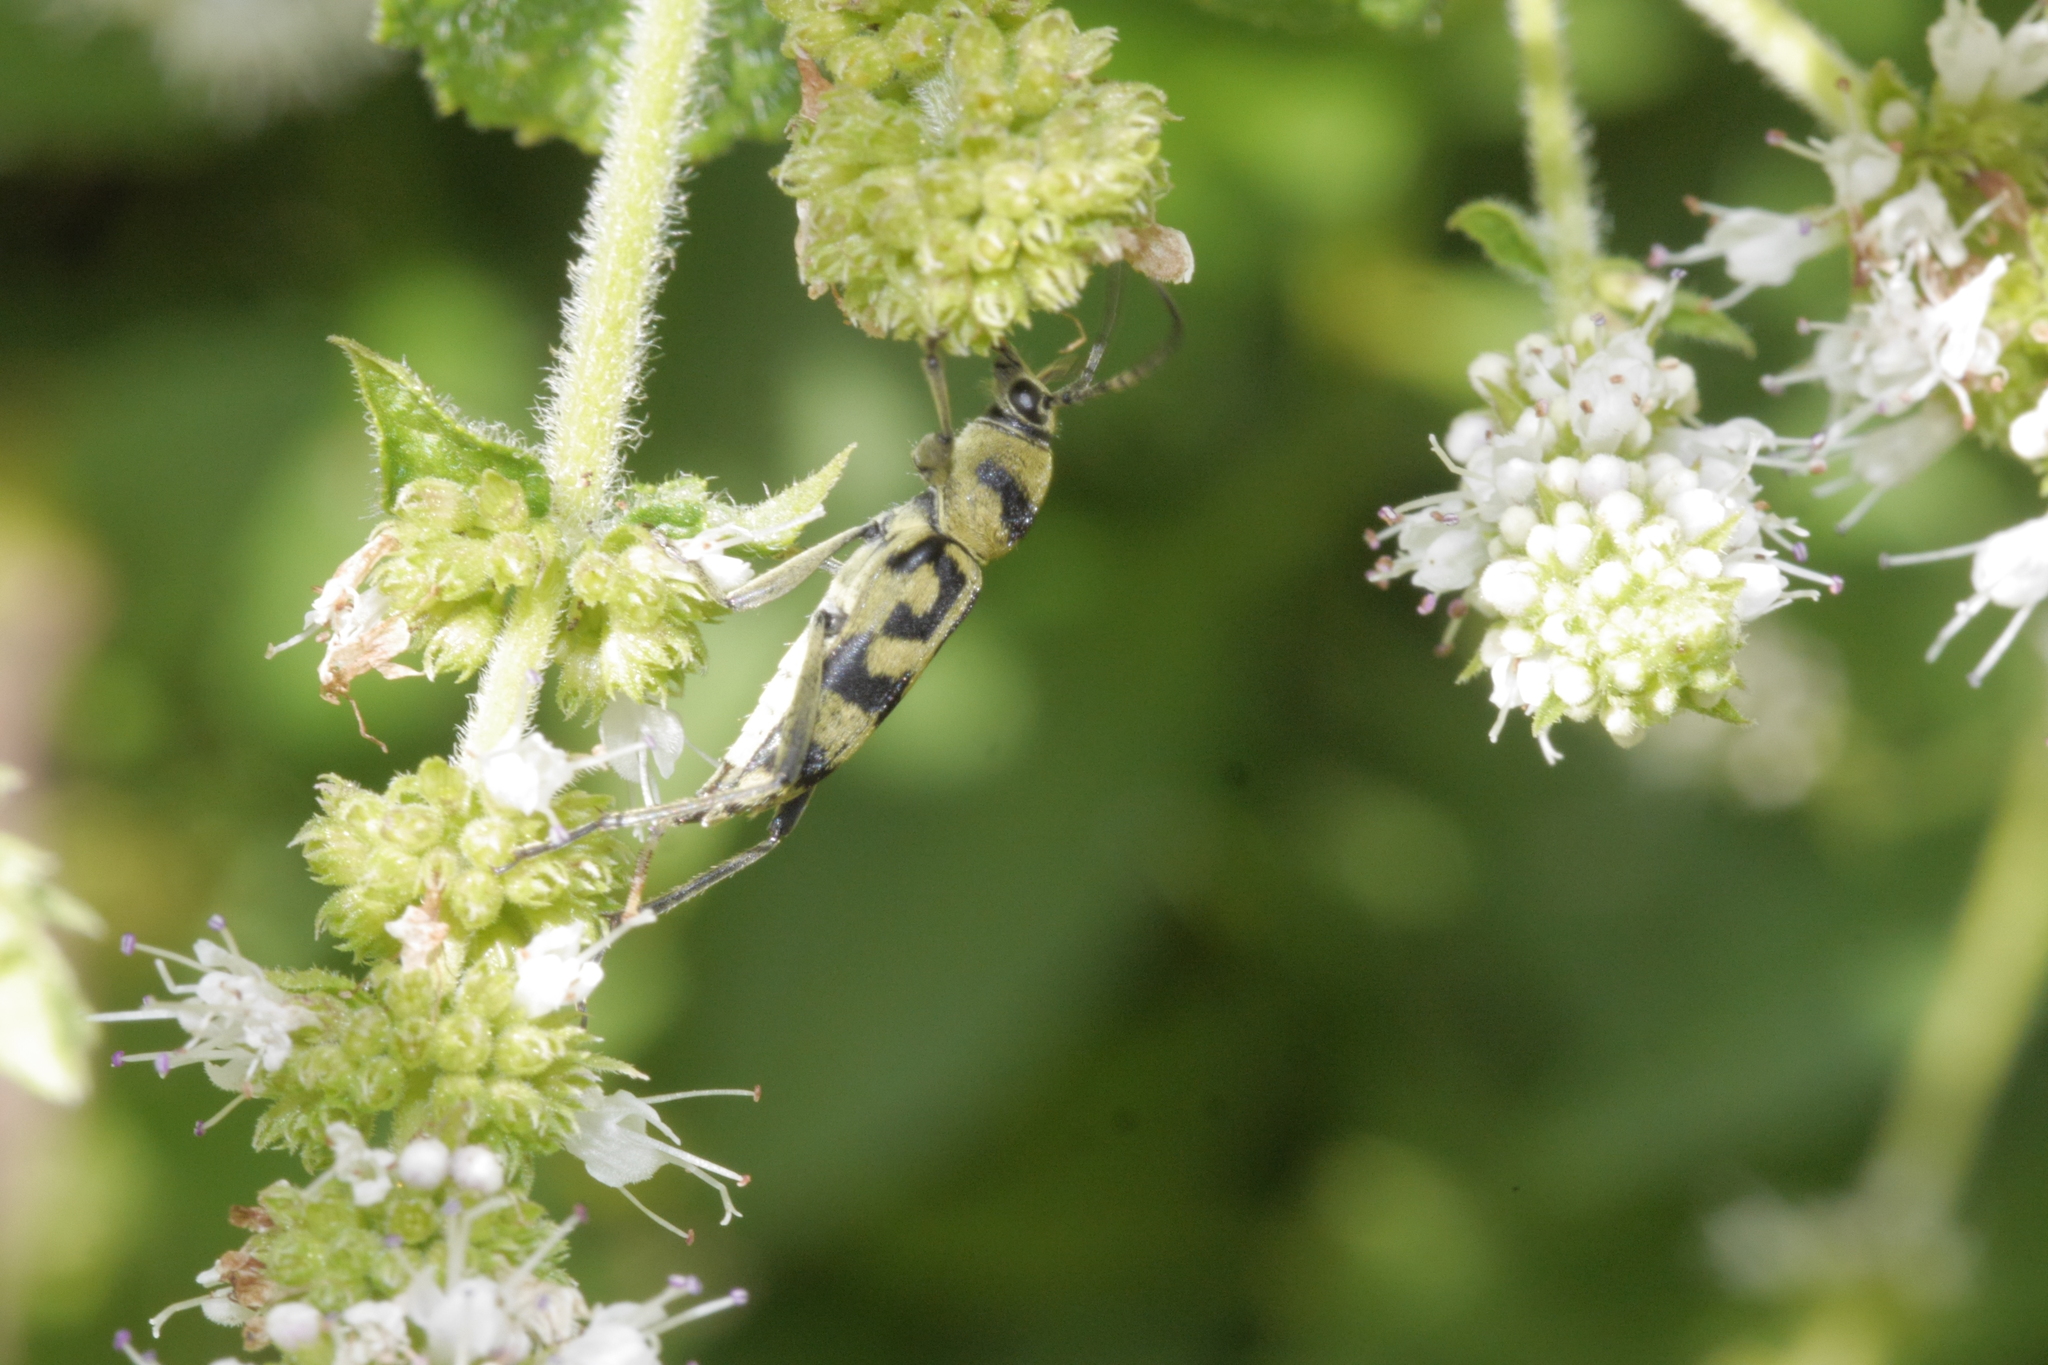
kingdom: Animalia
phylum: Arthropoda
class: Insecta
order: Coleoptera
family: Cerambycidae
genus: Chlorophorus
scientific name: Chlorophorus varius
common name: Grape wood borer
